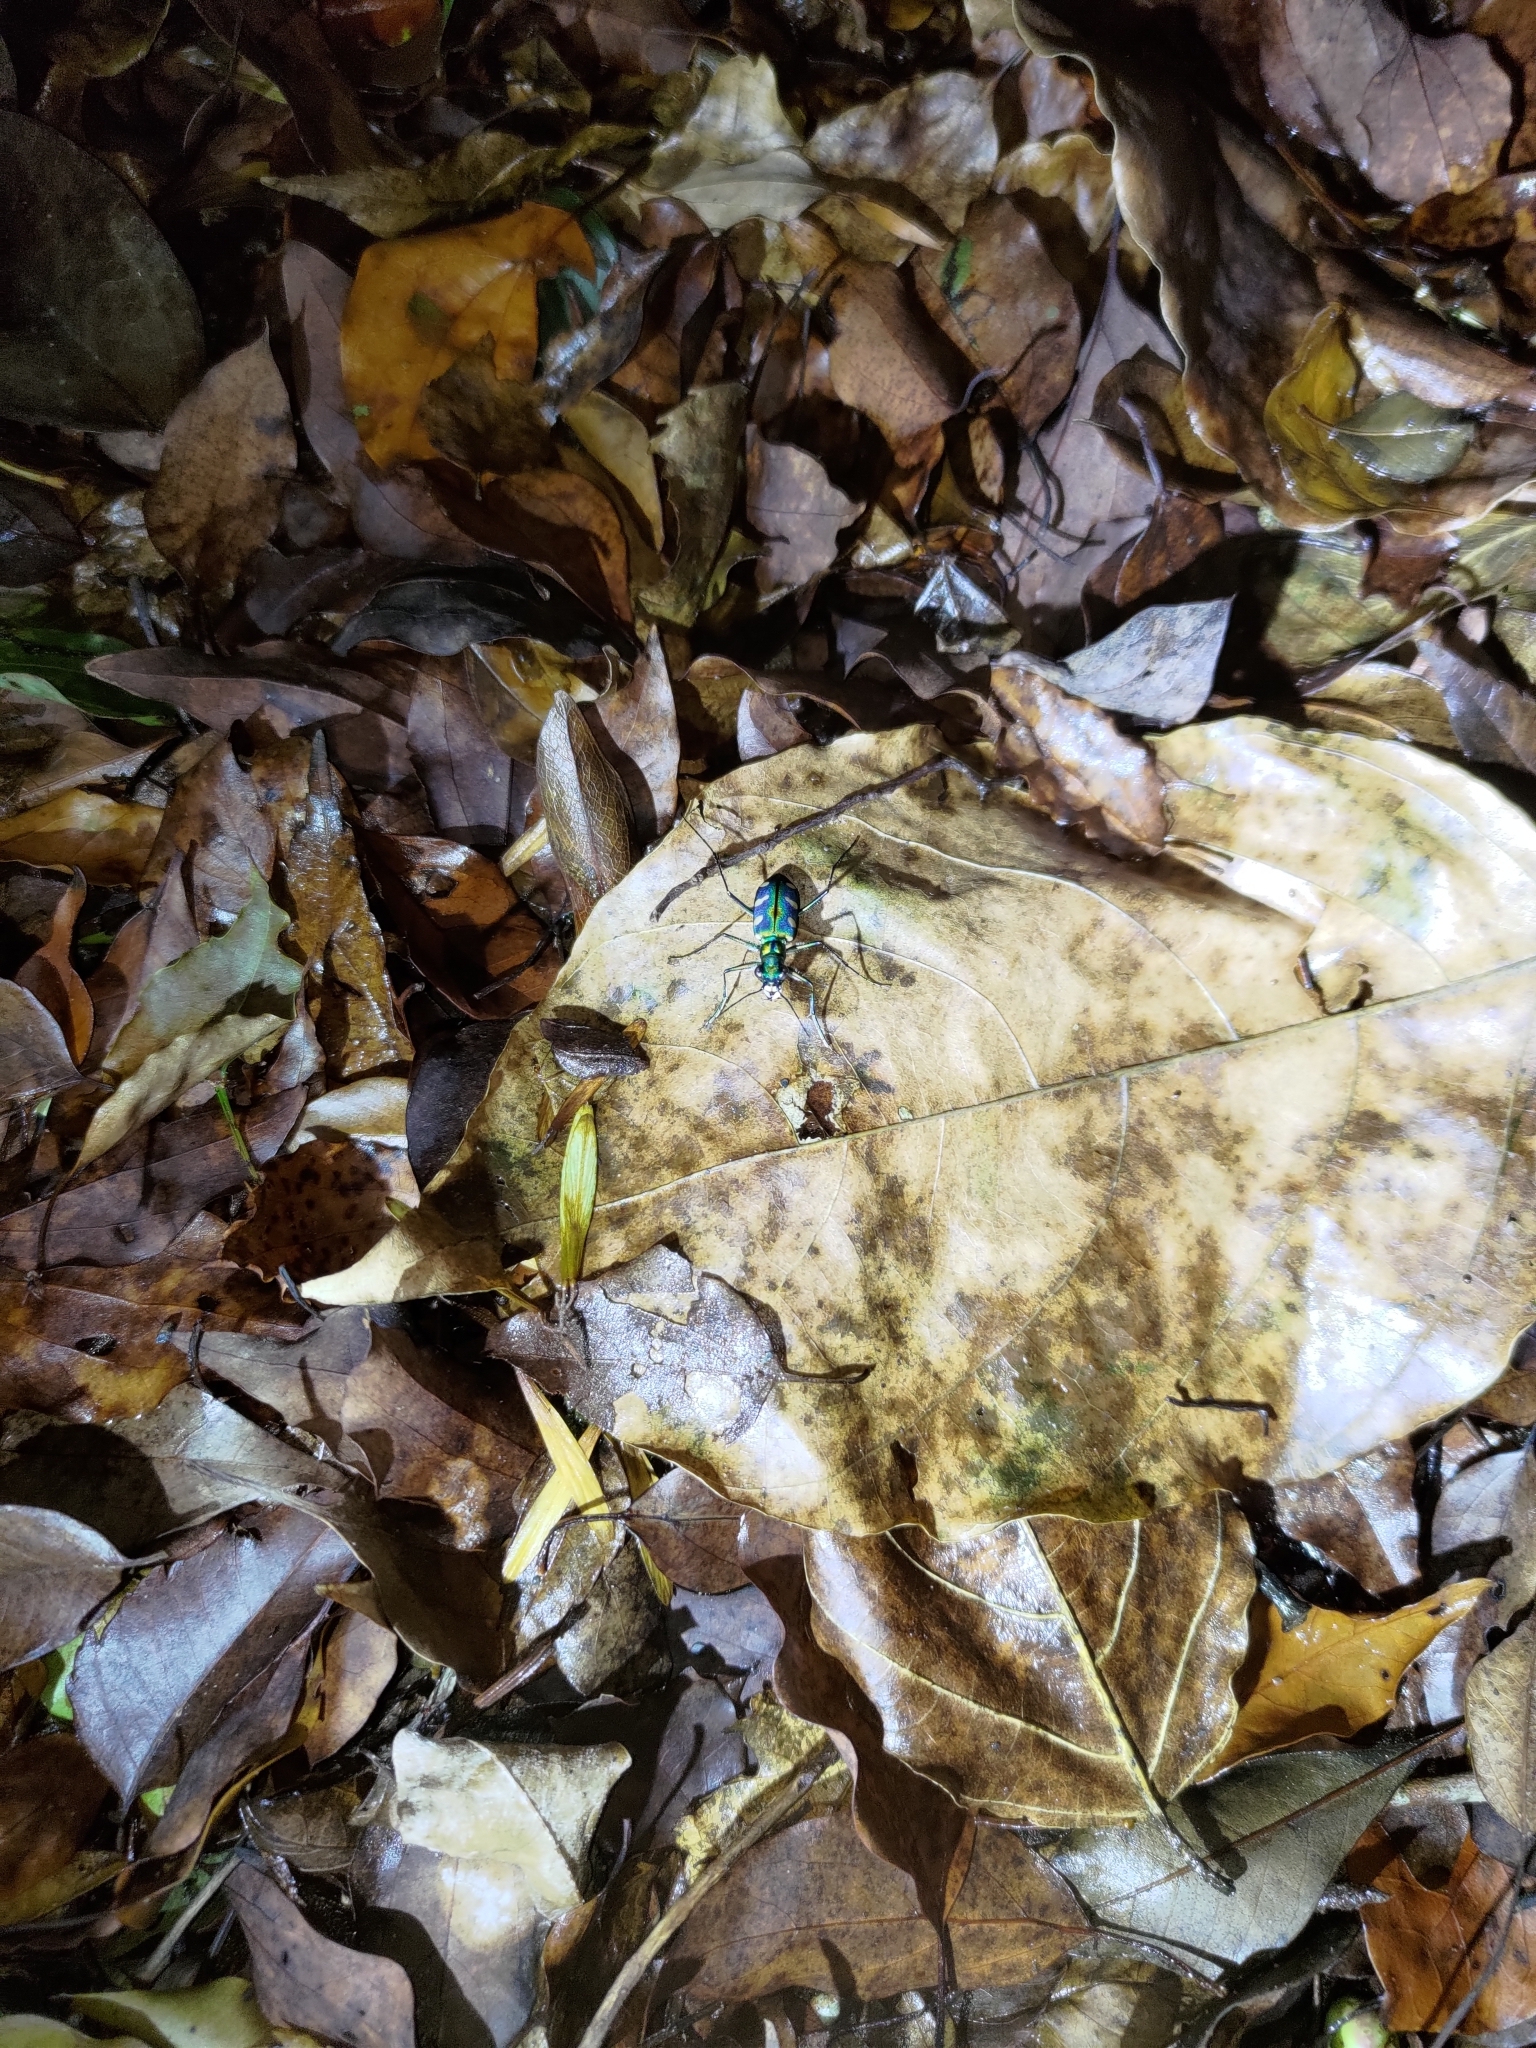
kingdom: Animalia
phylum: Arthropoda
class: Insecta
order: Coleoptera
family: Carabidae
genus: Cicindela
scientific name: Cicindela batesi
